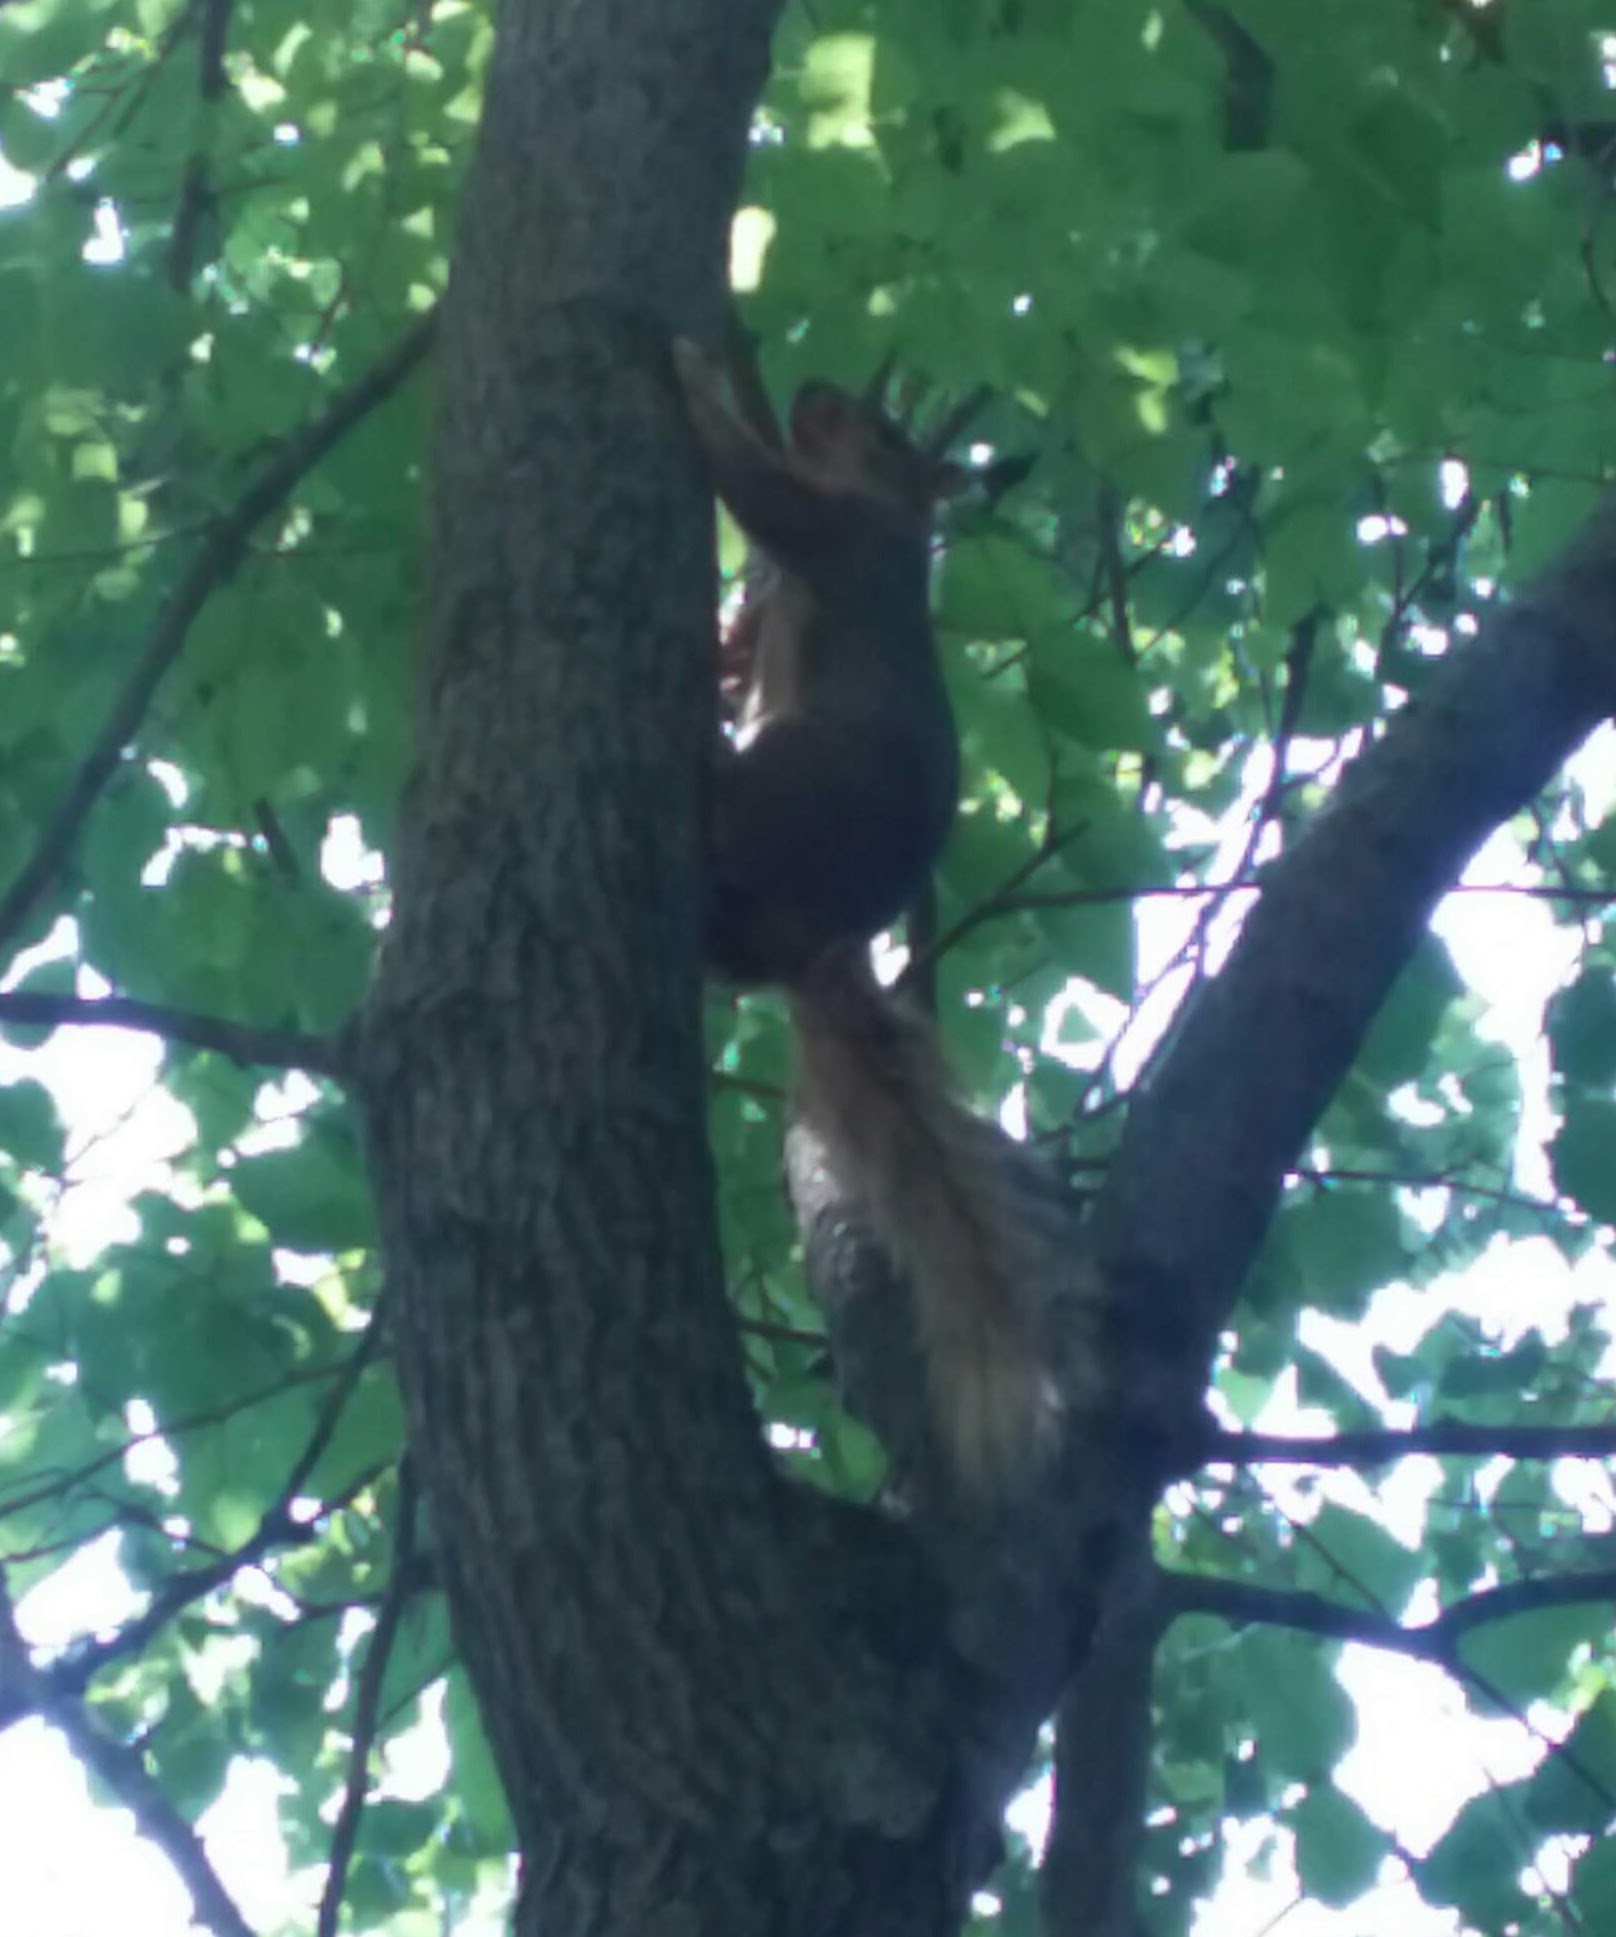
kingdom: Animalia
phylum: Chordata
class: Mammalia
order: Rodentia
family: Sciuridae
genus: Sciurus
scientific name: Sciurus niger
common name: Fox squirrel
